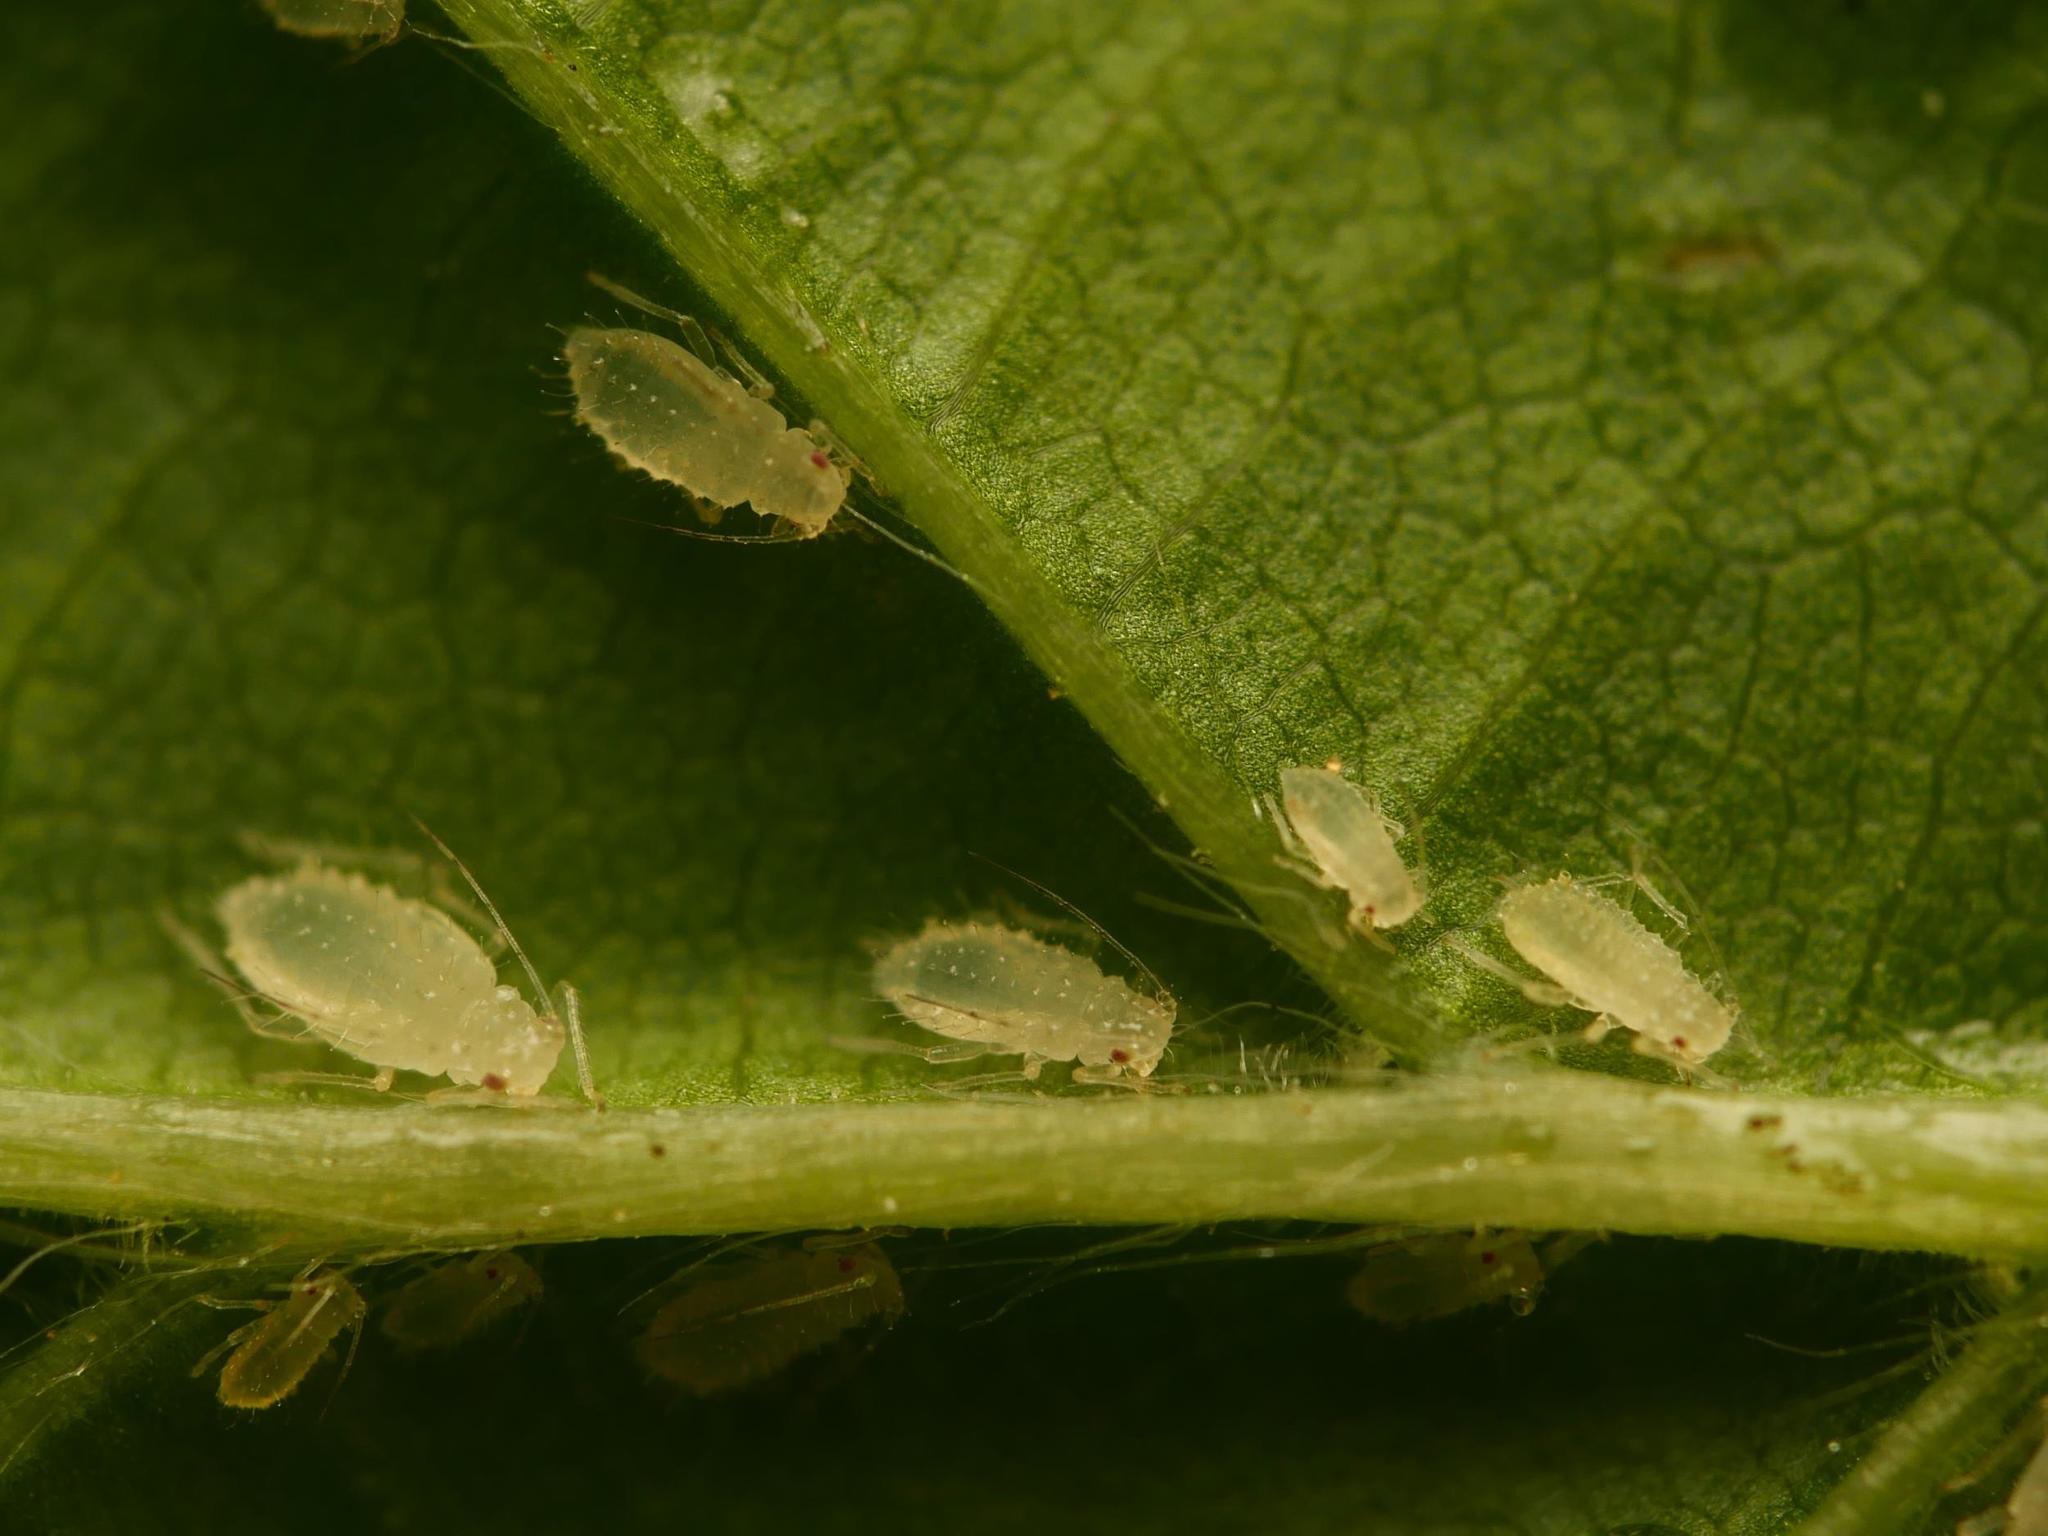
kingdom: Animalia
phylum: Arthropoda
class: Insecta
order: Hemiptera
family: Aphididae
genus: Myzocallis
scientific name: Myzocallis carpini
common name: Aphid
